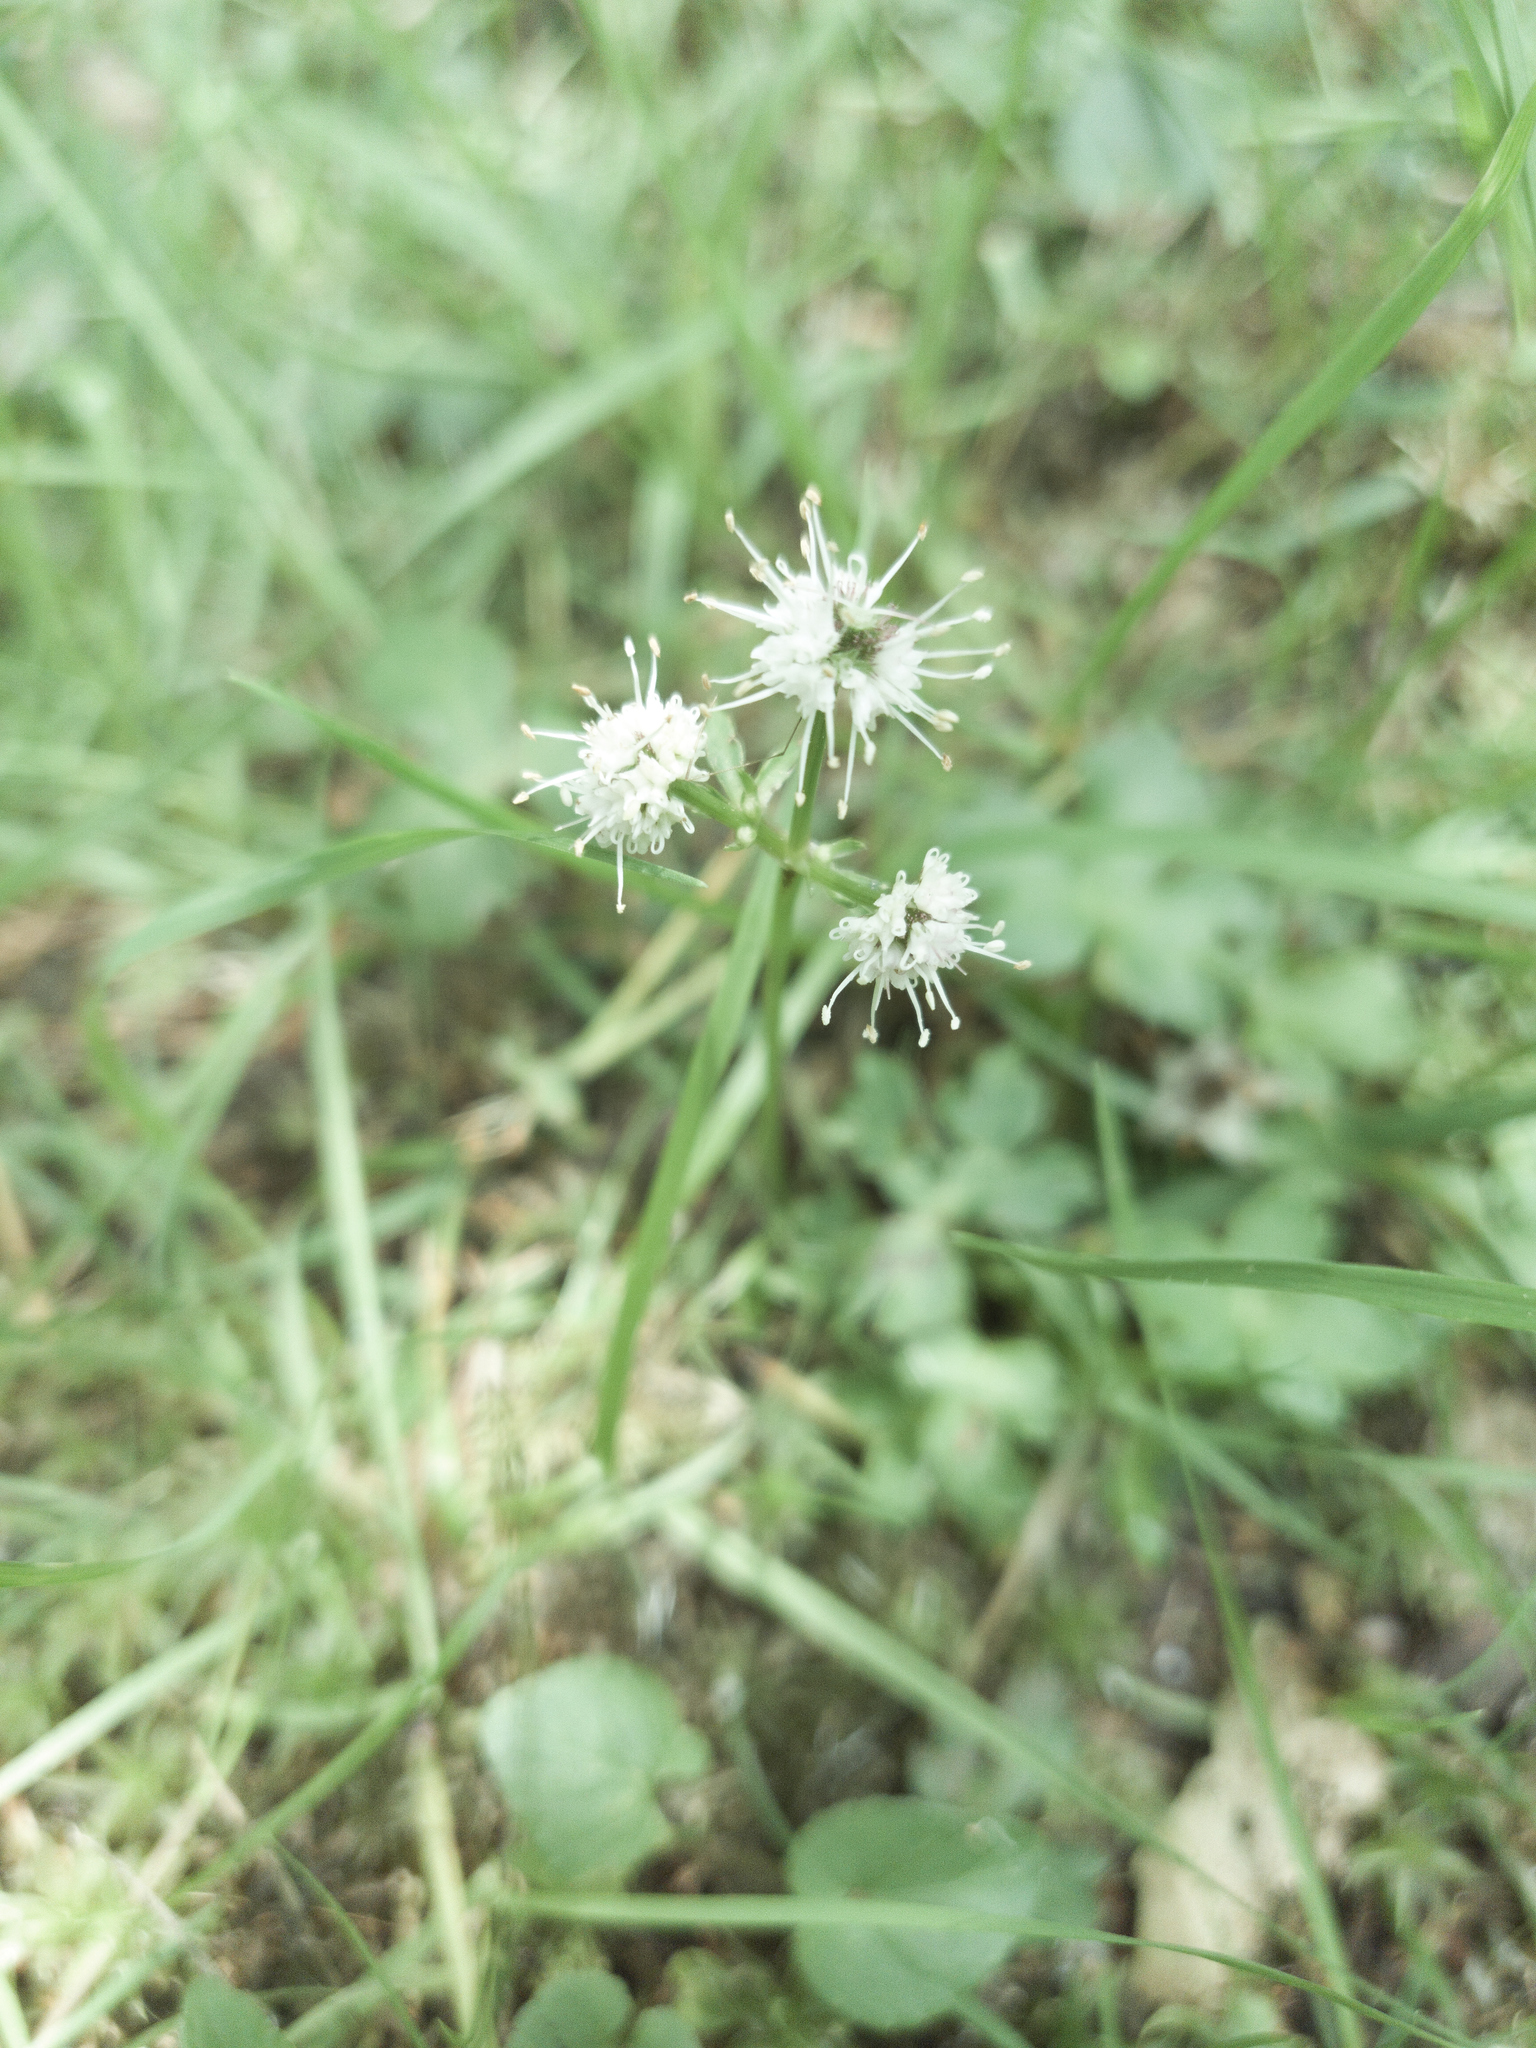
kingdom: Plantae
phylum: Tracheophyta
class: Magnoliopsida
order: Apiales
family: Apiaceae
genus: Sanicula
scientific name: Sanicula europaea
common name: Sanicle
